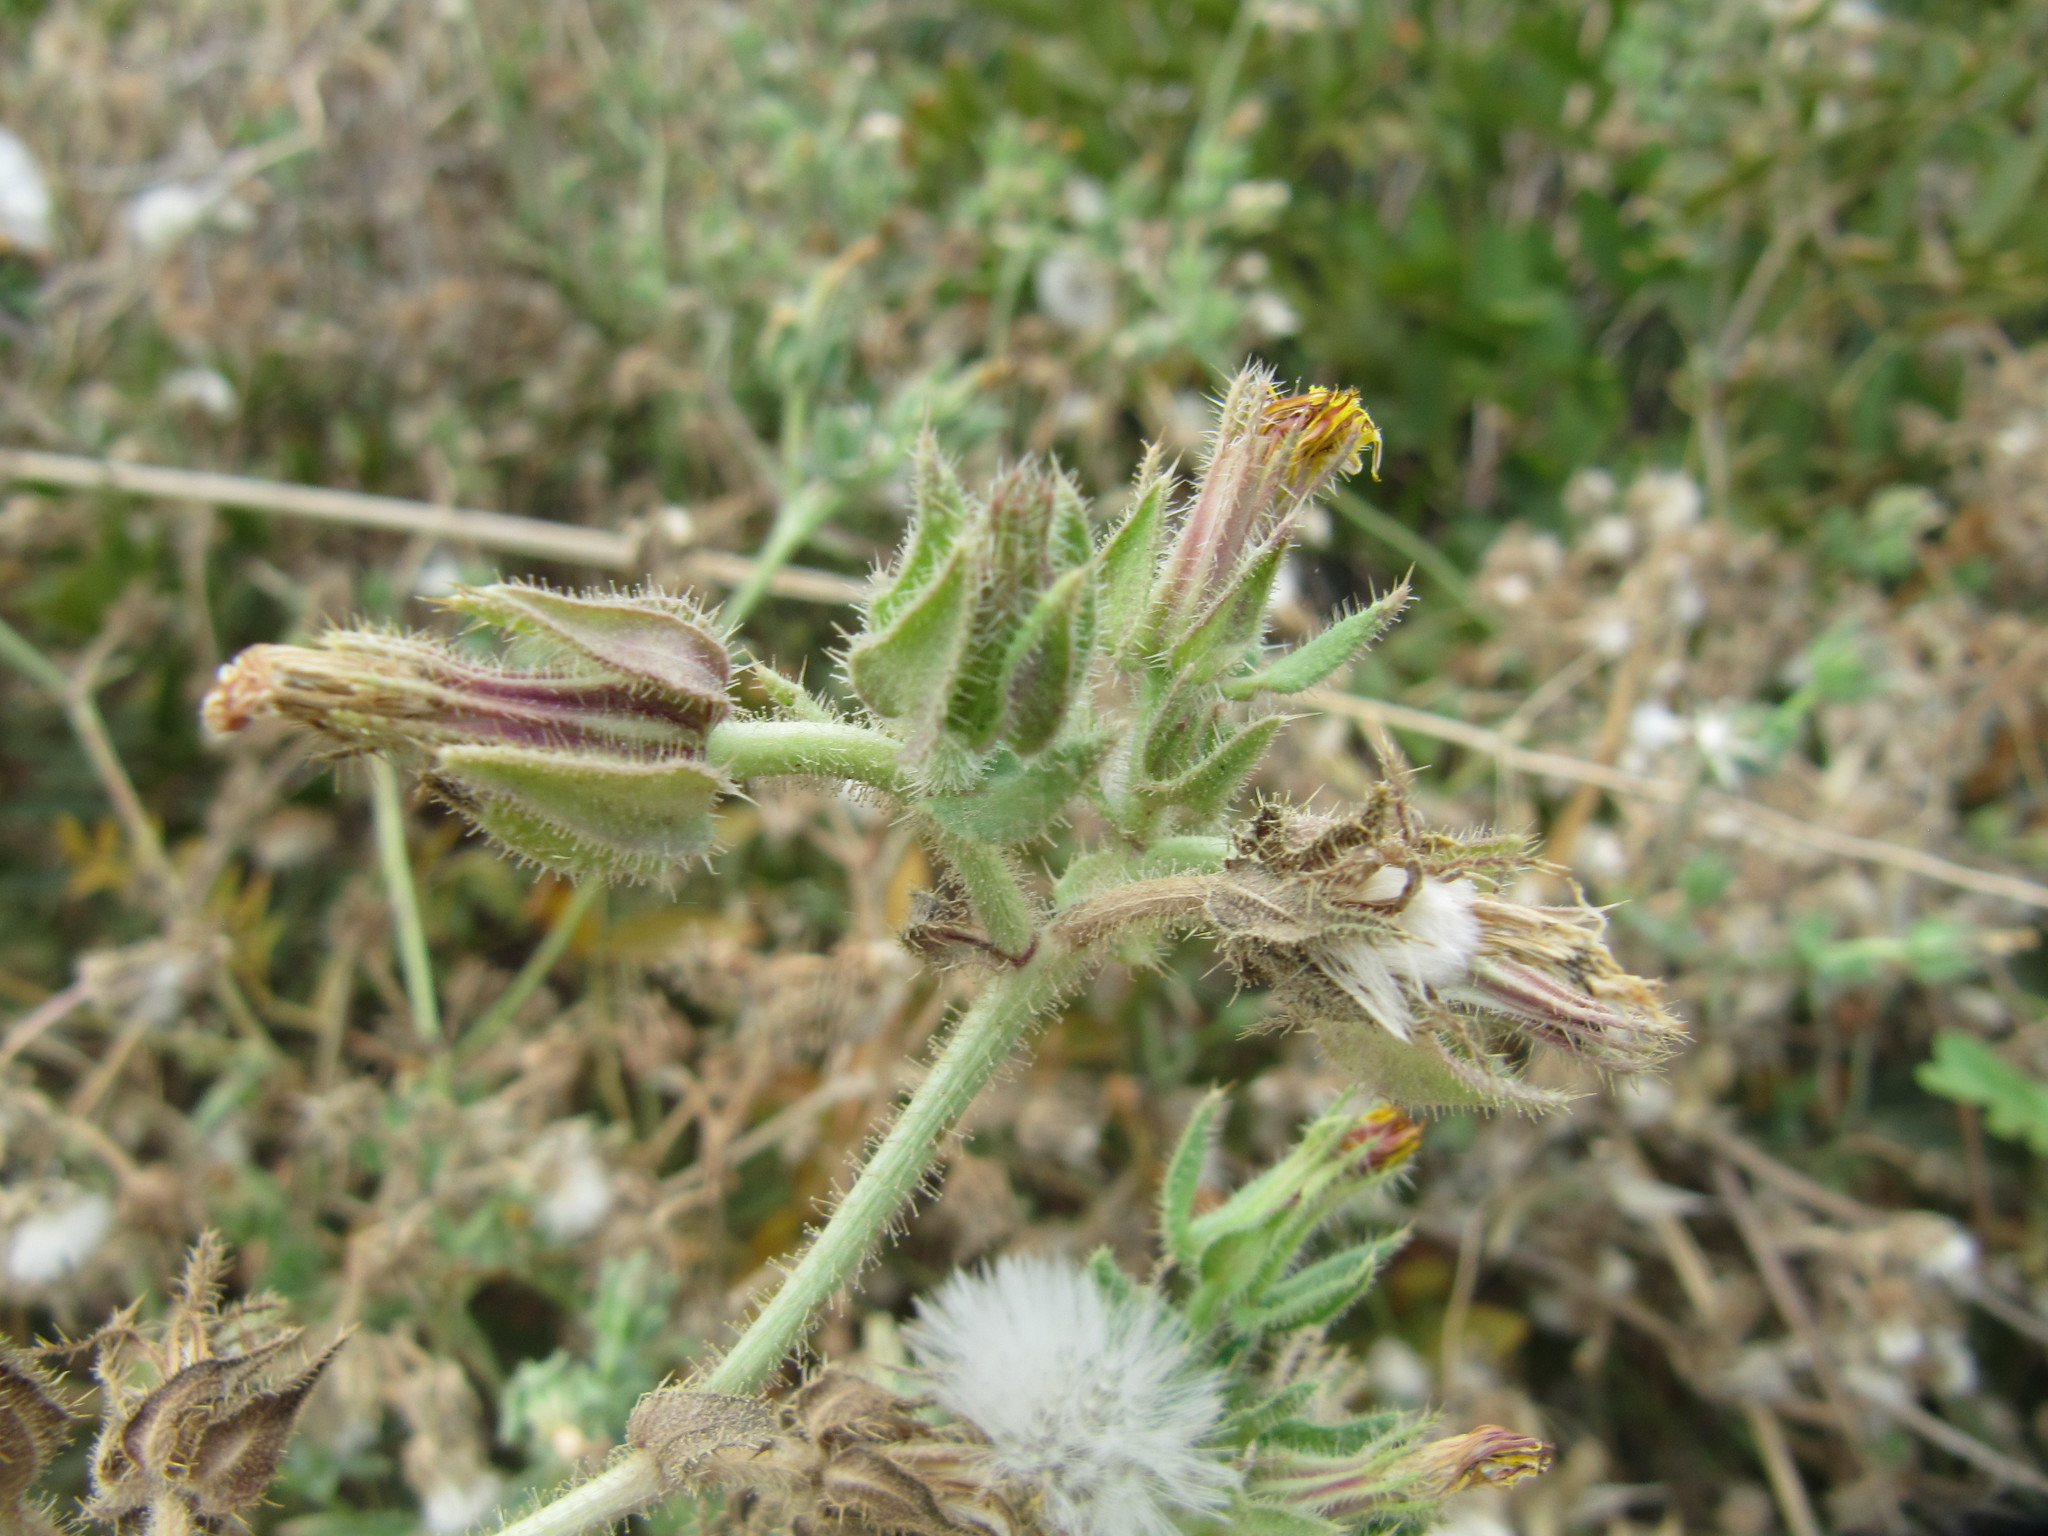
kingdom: Plantae
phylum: Tracheophyta
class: Magnoliopsida
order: Asterales
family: Asteraceae
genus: Helminthotheca
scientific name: Helminthotheca echioides
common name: Ox-tongue
